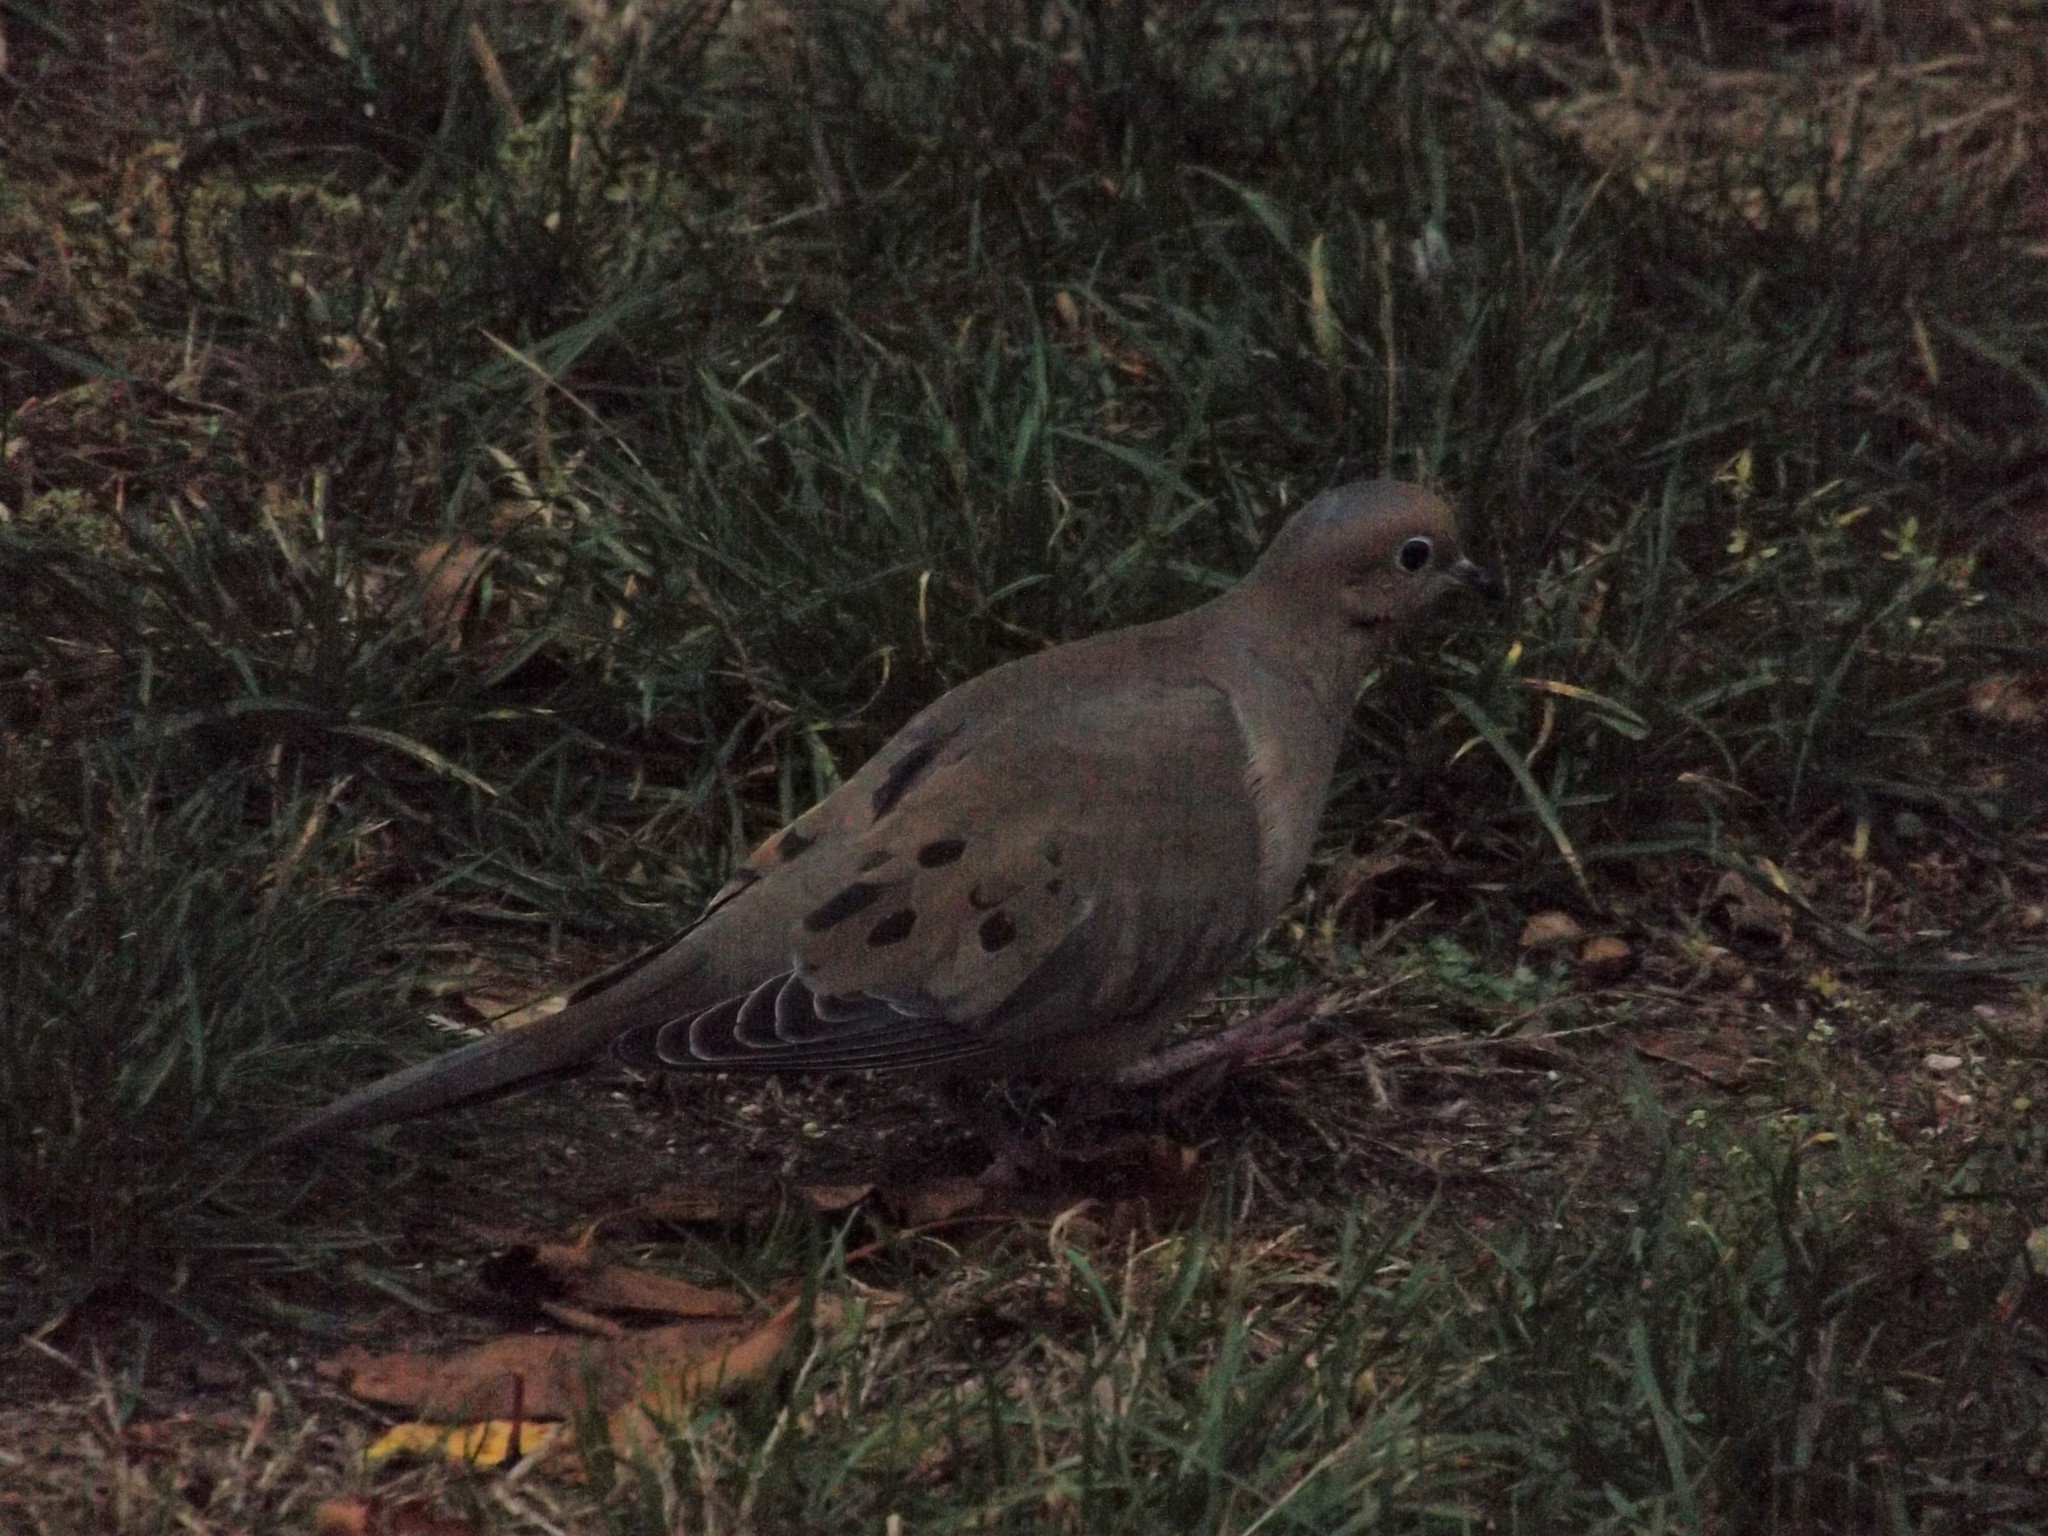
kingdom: Animalia
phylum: Chordata
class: Aves
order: Columbiformes
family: Columbidae
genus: Zenaida
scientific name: Zenaida macroura
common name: Mourning dove
